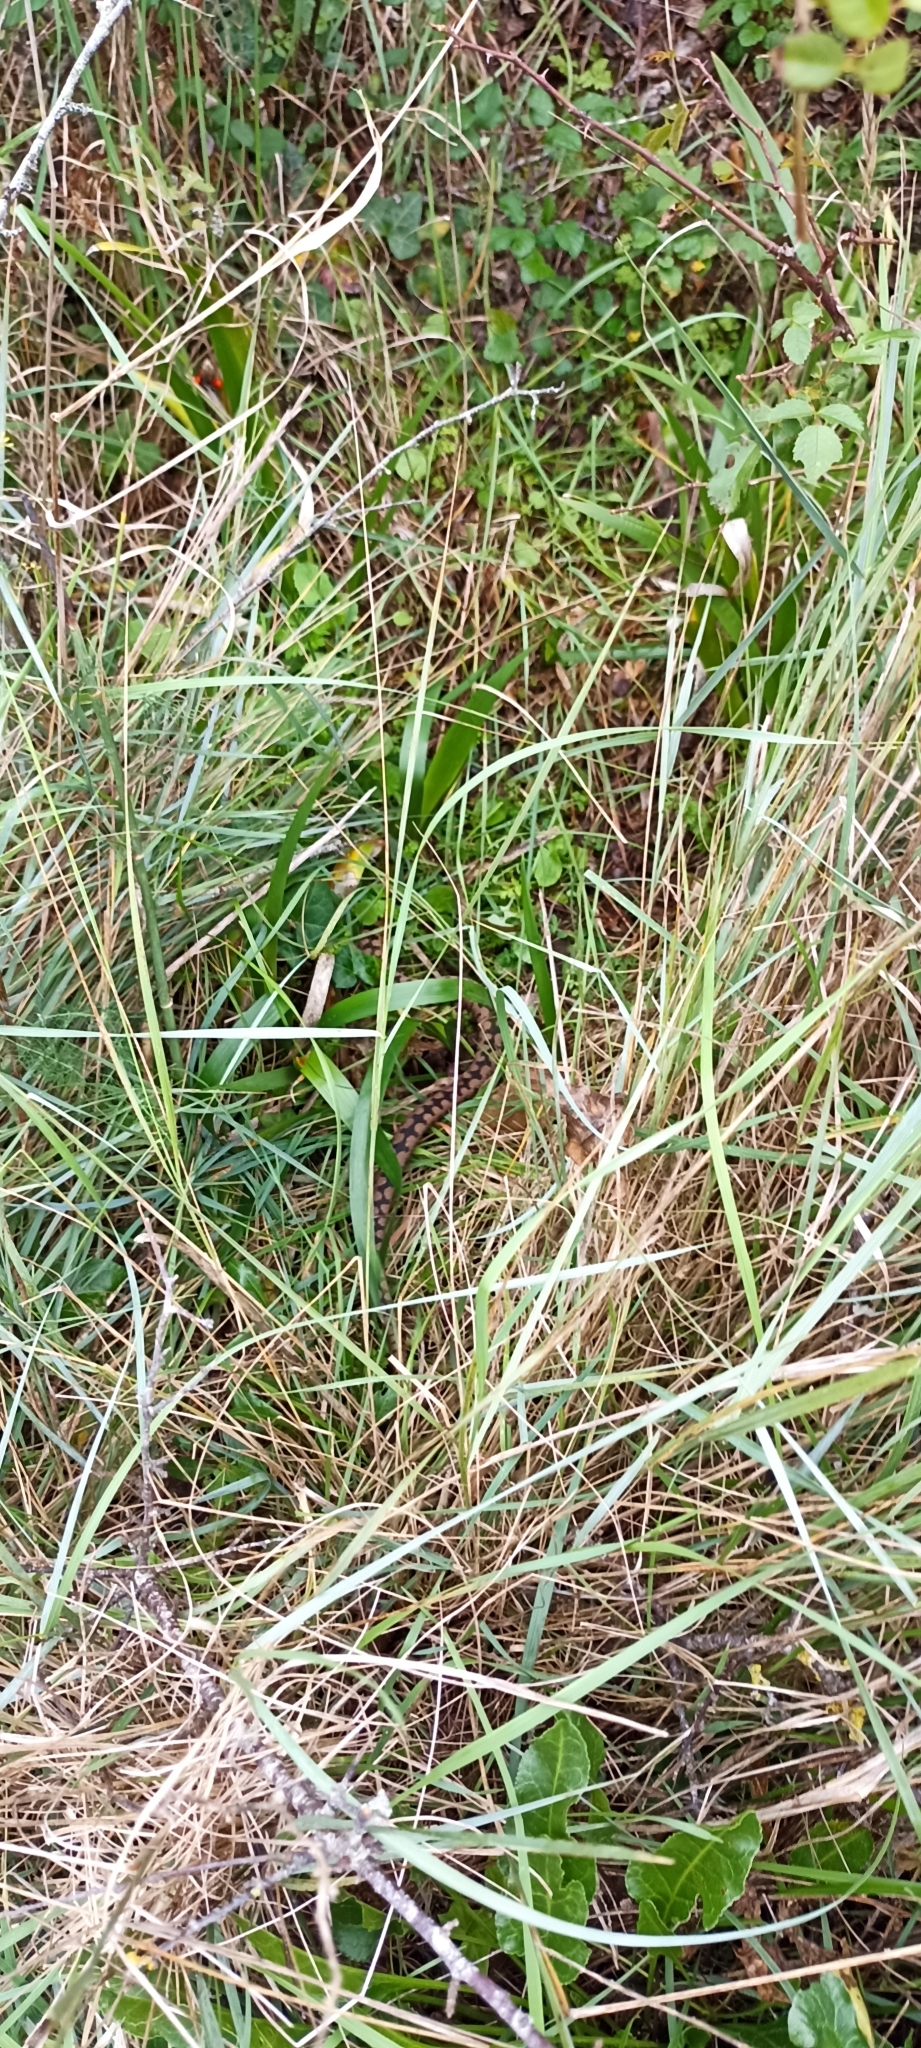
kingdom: Animalia
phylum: Chordata
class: Squamata
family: Viperidae
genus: Vipera
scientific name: Vipera aspis
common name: Asp viper
